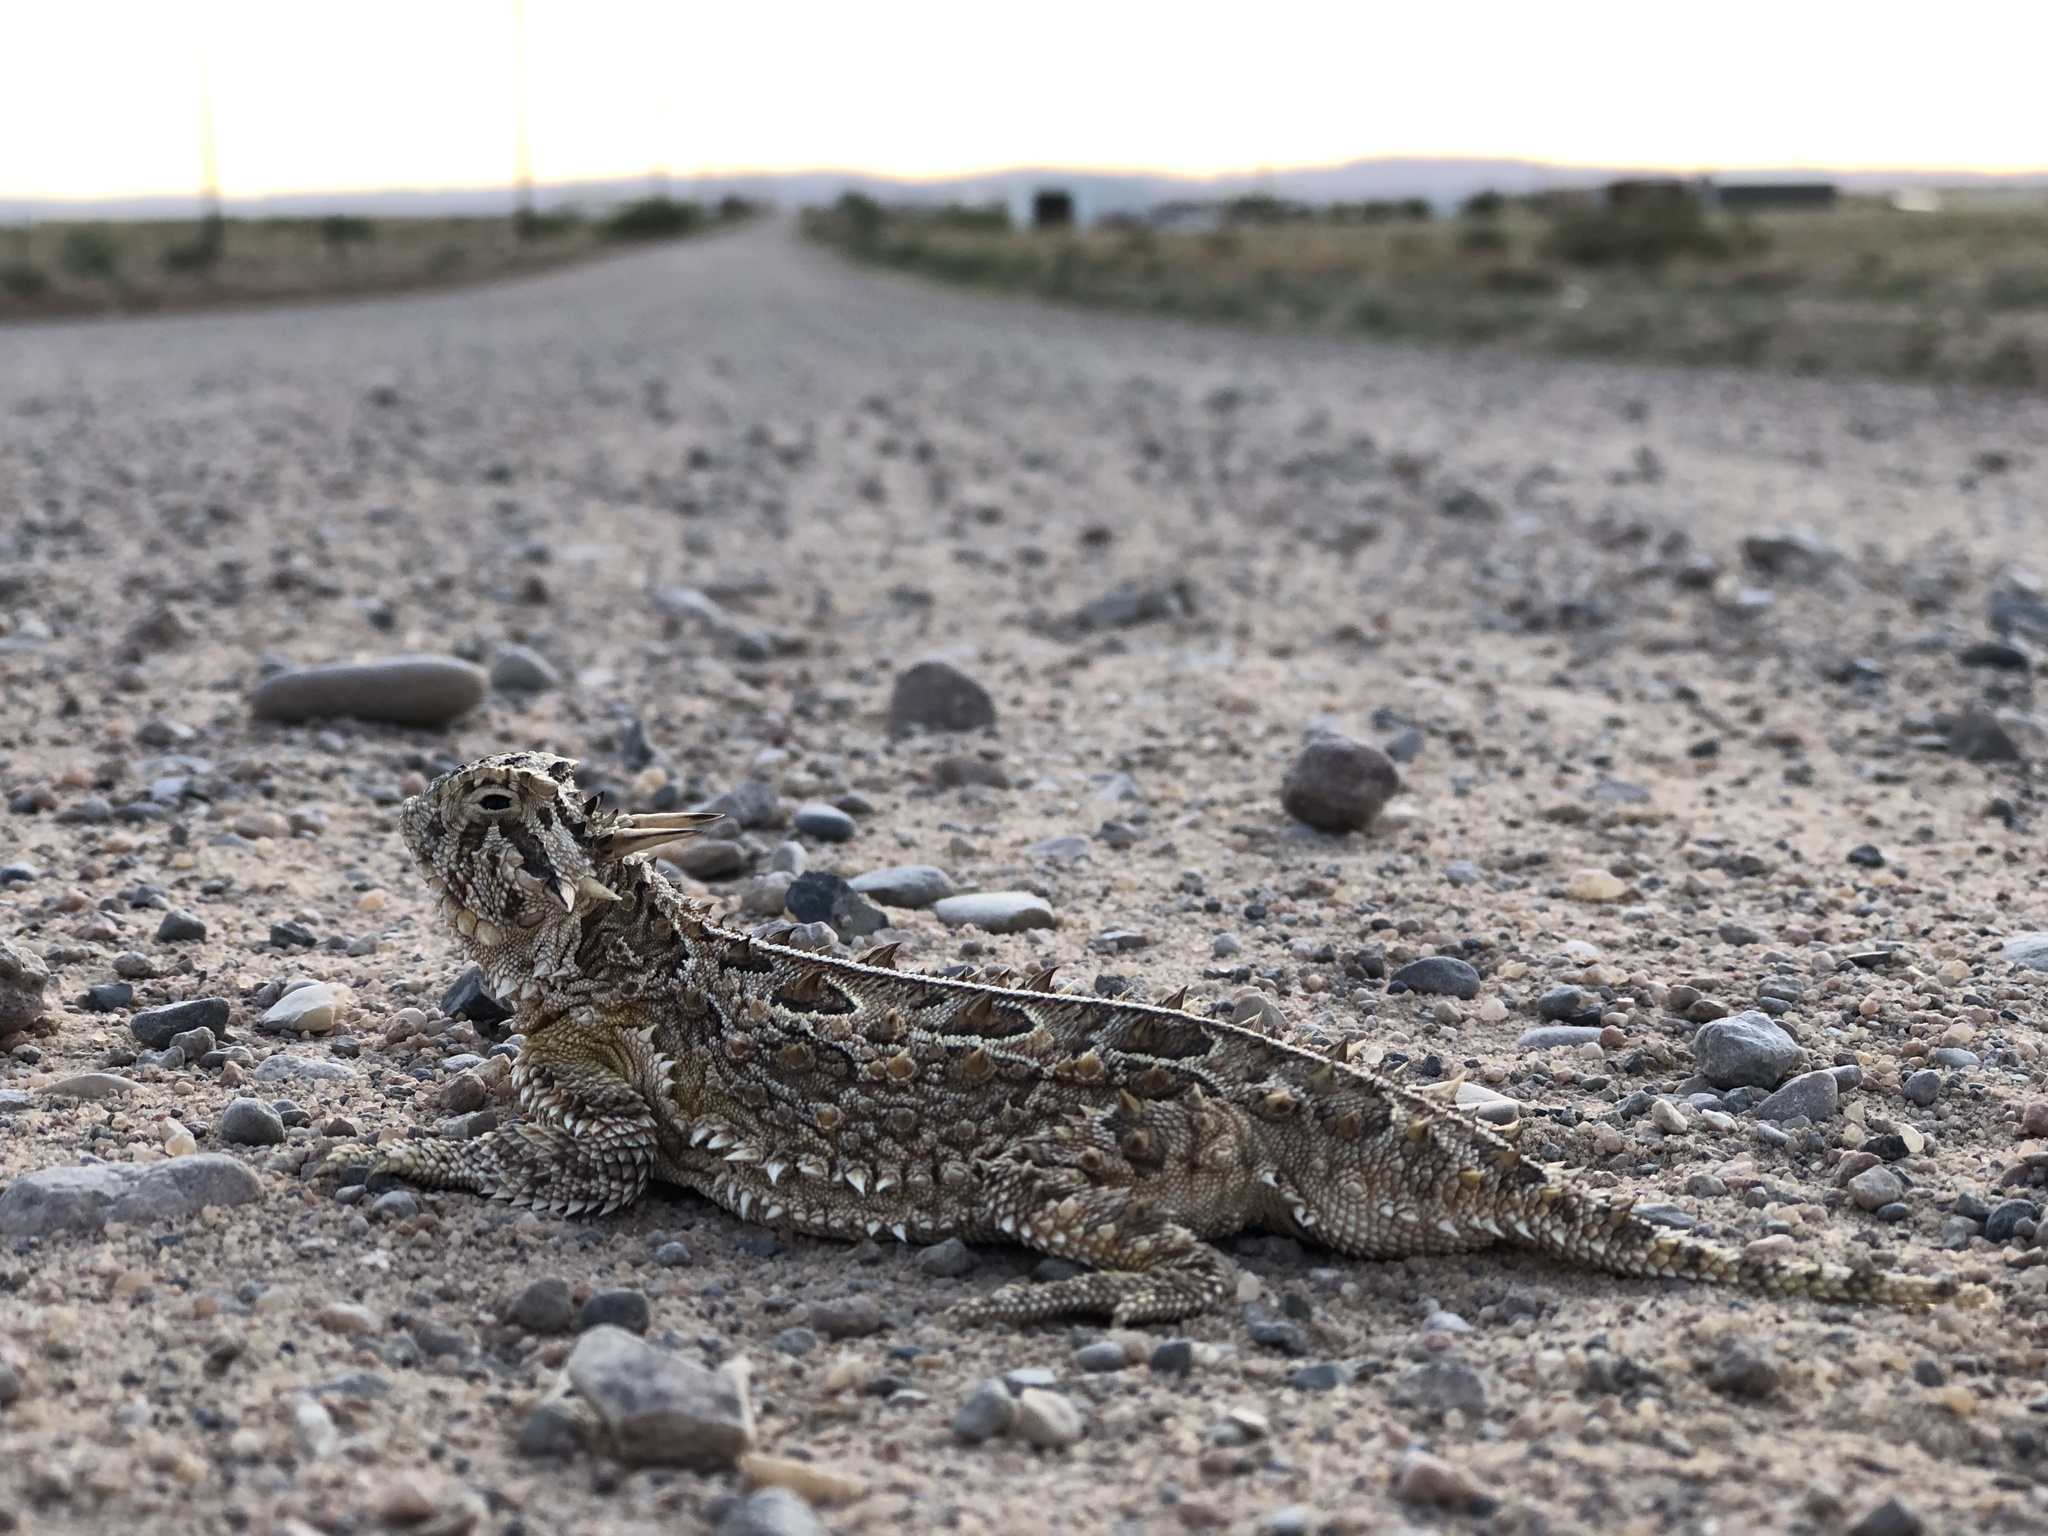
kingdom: Animalia
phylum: Chordata
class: Squamata
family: Phrynosomatidae
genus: Phrynosoma
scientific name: Phrynosoma cornutum
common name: Texas horned lizard
